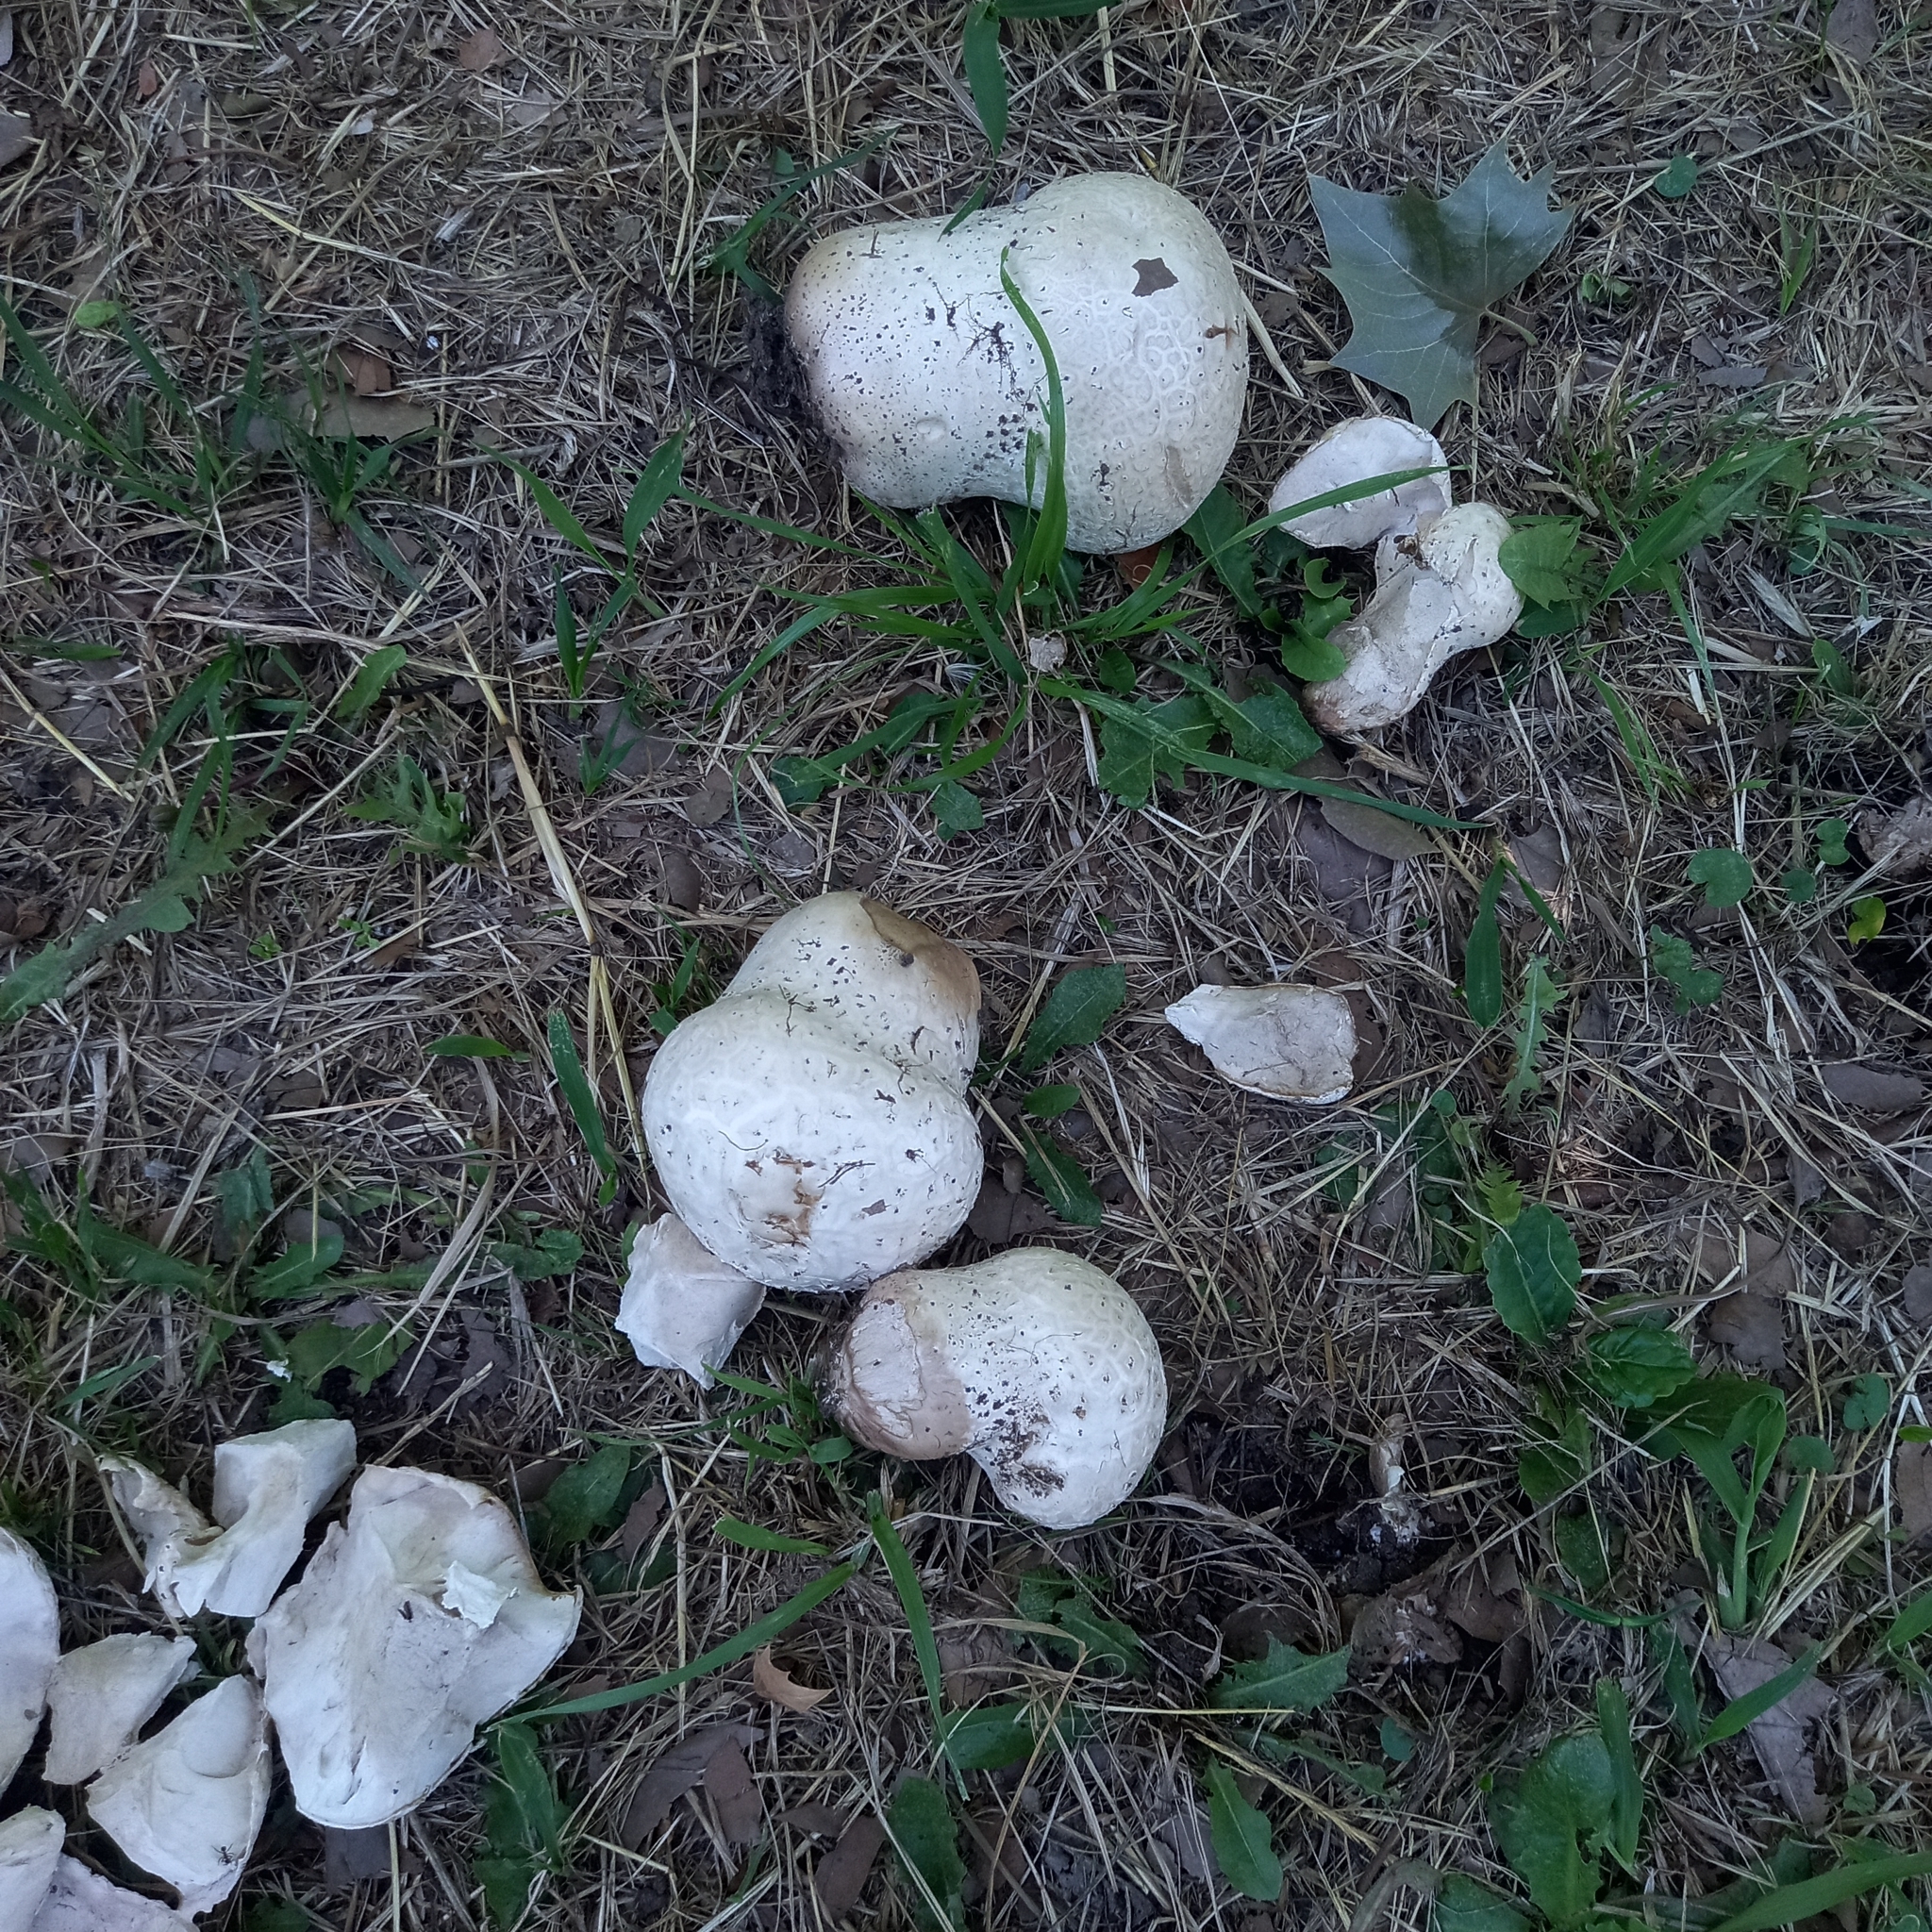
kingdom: Fungi
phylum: Basidiomycota
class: Agaricomycetes
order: Agaricales
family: Lycoperdaceae
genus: Calvatia
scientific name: Calvatia cyathiformis
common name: Purple-spored puffball
